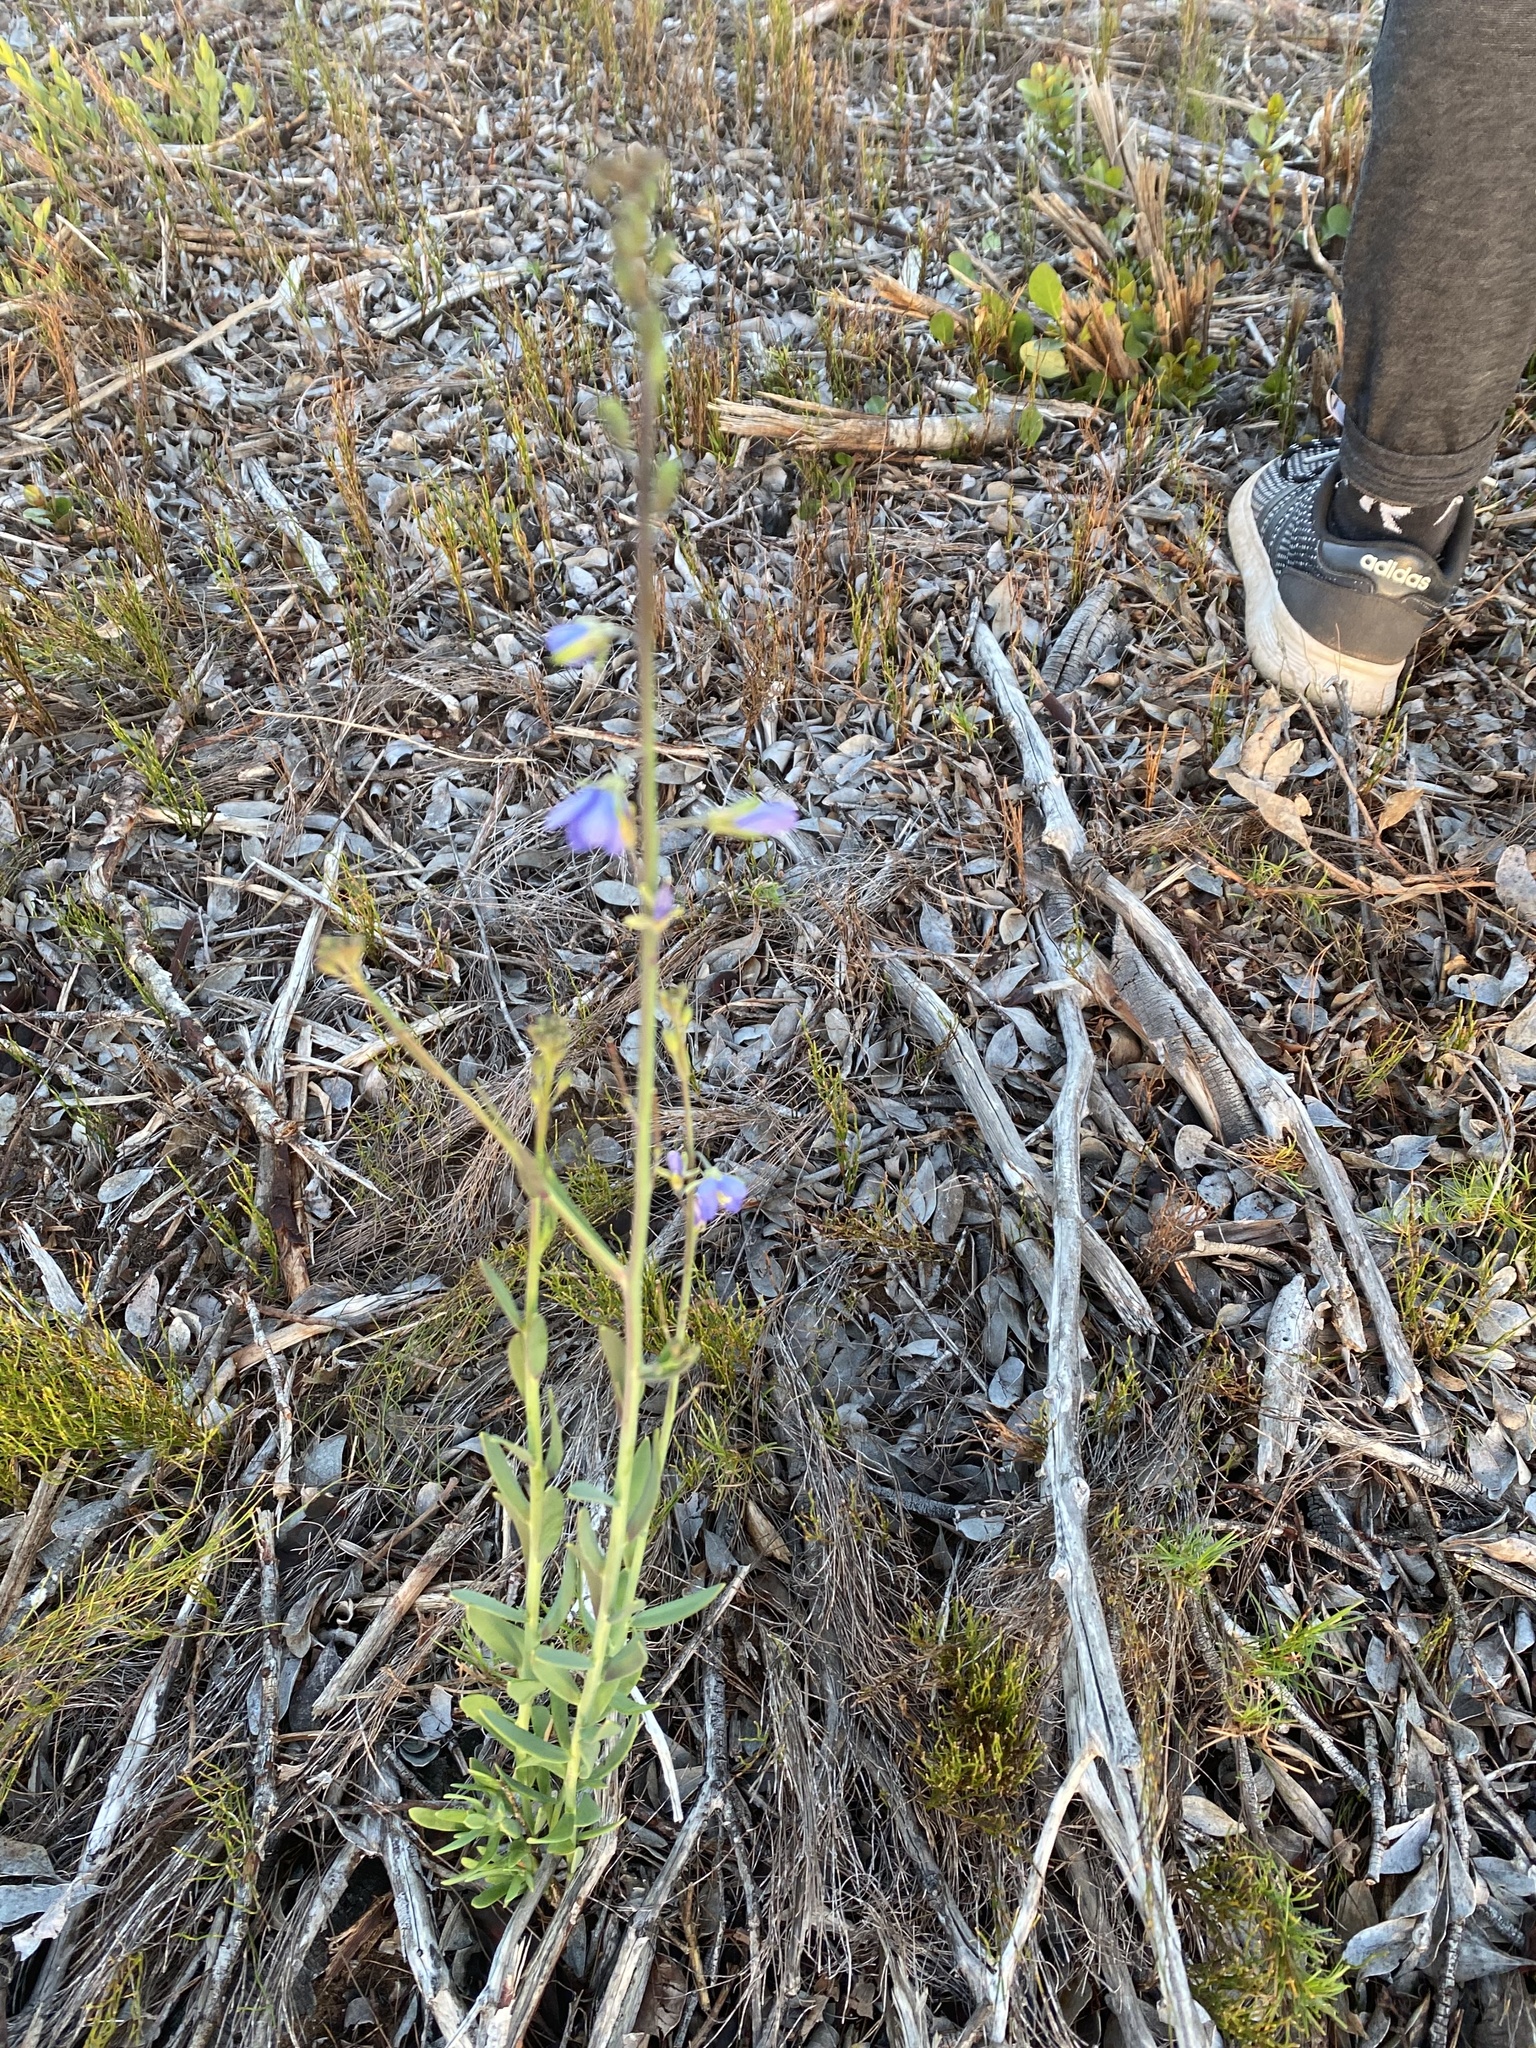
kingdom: Plantae
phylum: Tracheophyta
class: Magnoliopsida
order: Brassicales
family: Brassicaceae
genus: Heliophila
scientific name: Heliophila linearis
